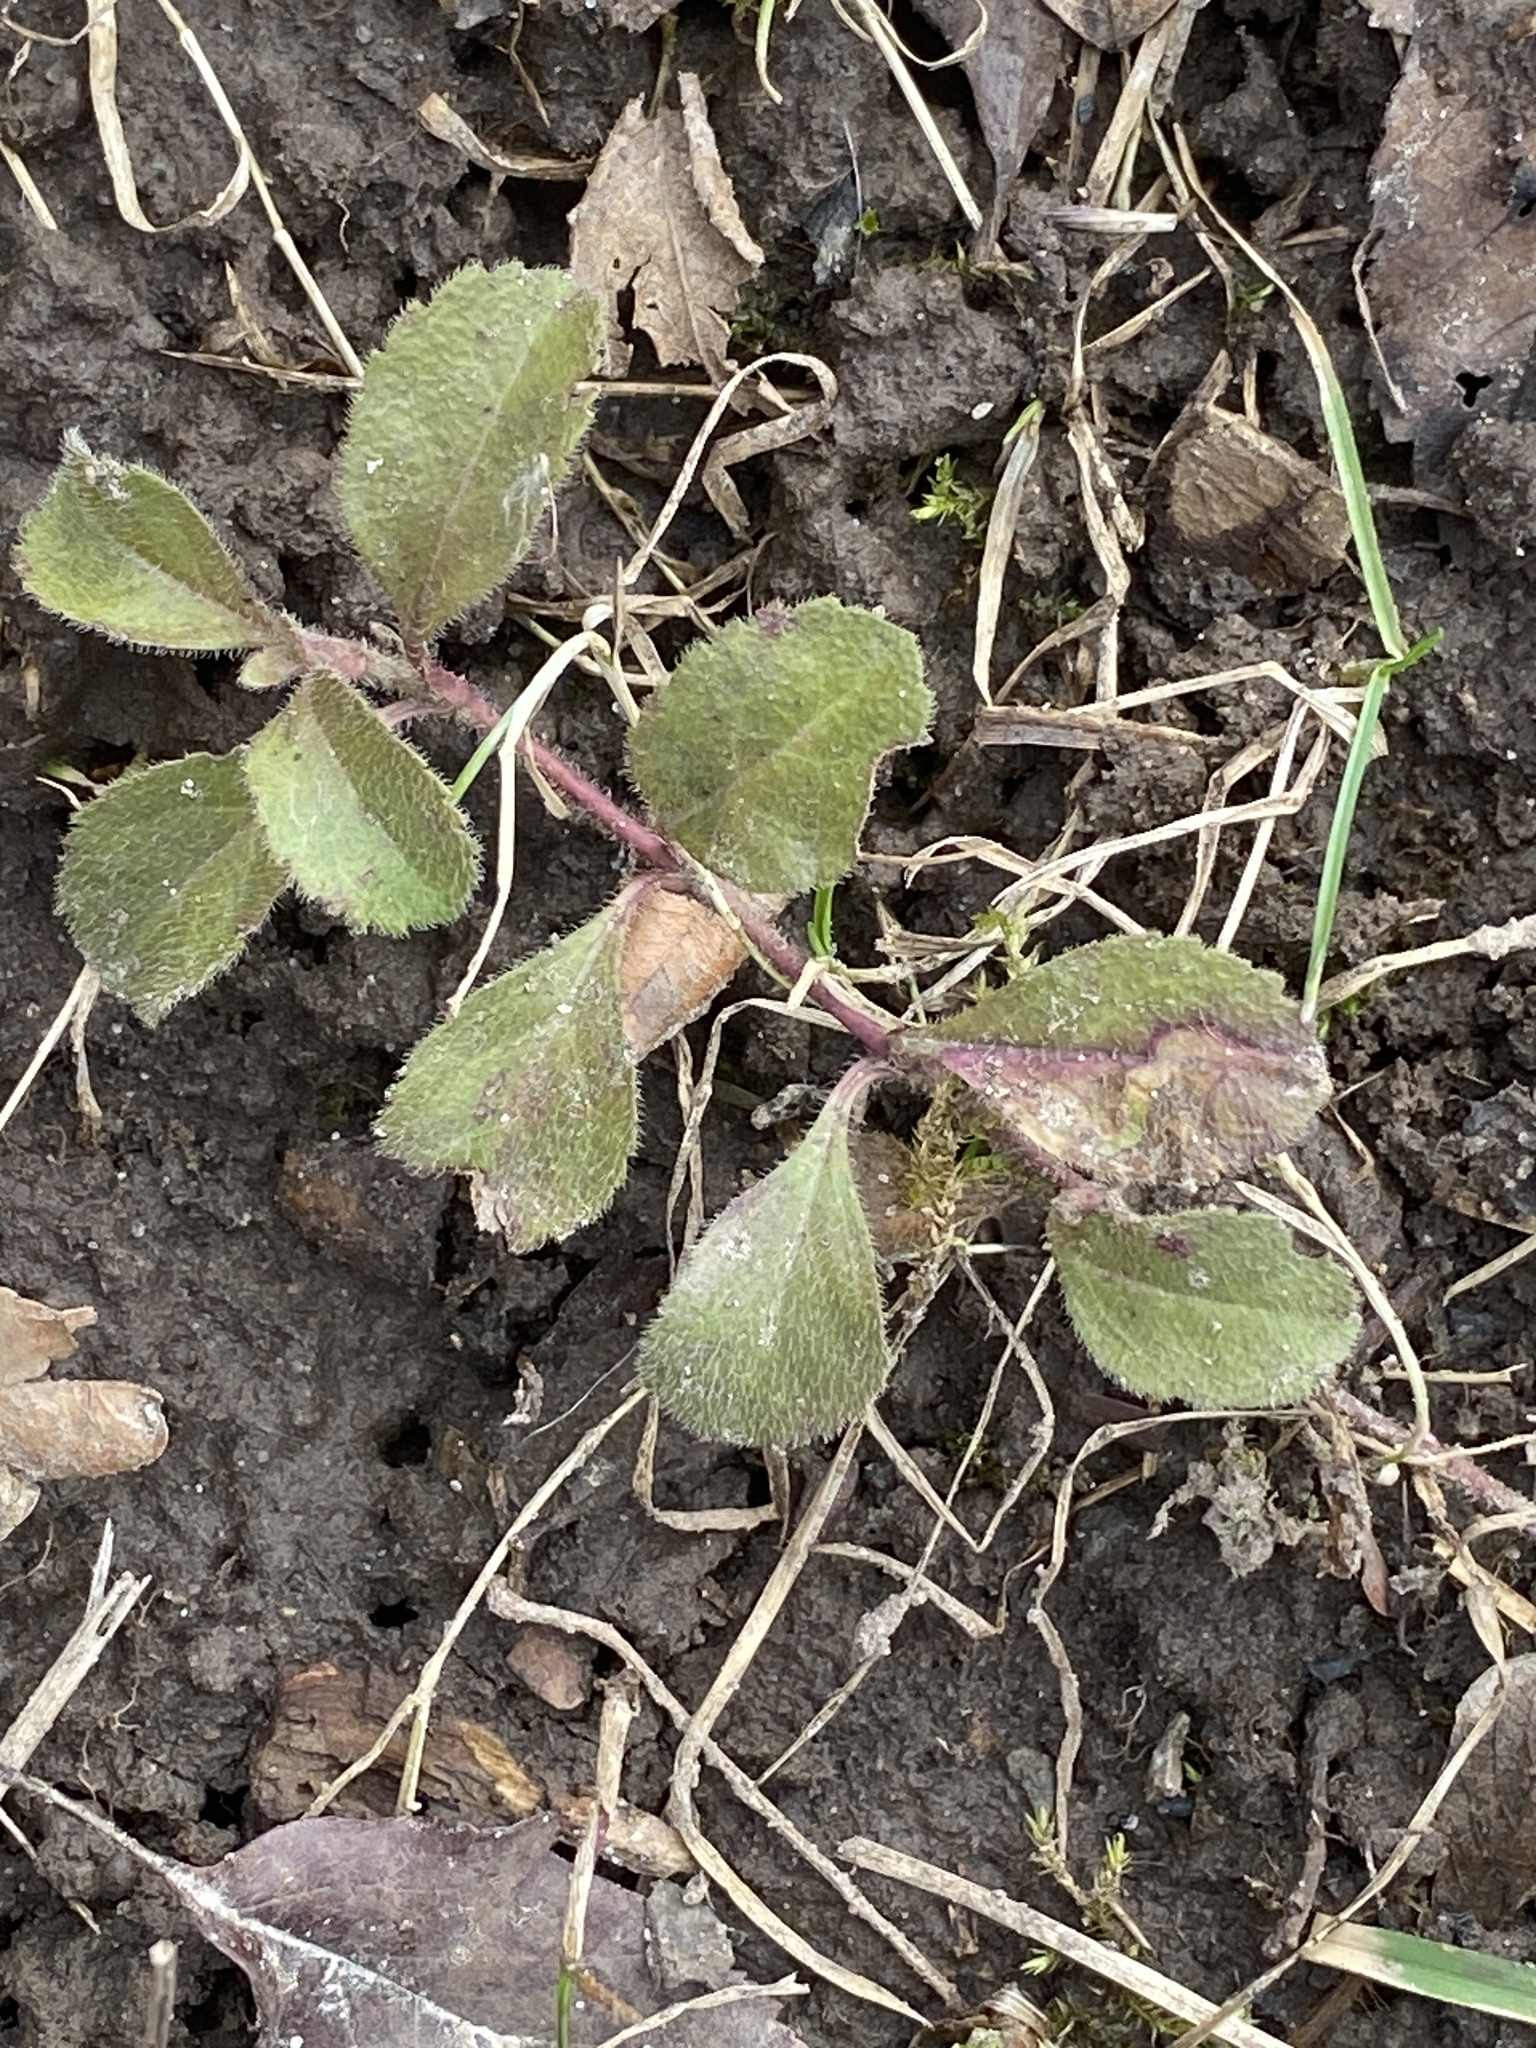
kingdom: Plantae
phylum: Tracheophyta
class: Magnoliopsida
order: Lamiales
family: Plantaginaceae
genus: Veronica
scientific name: Veronica officinalis
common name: Common speedwell
